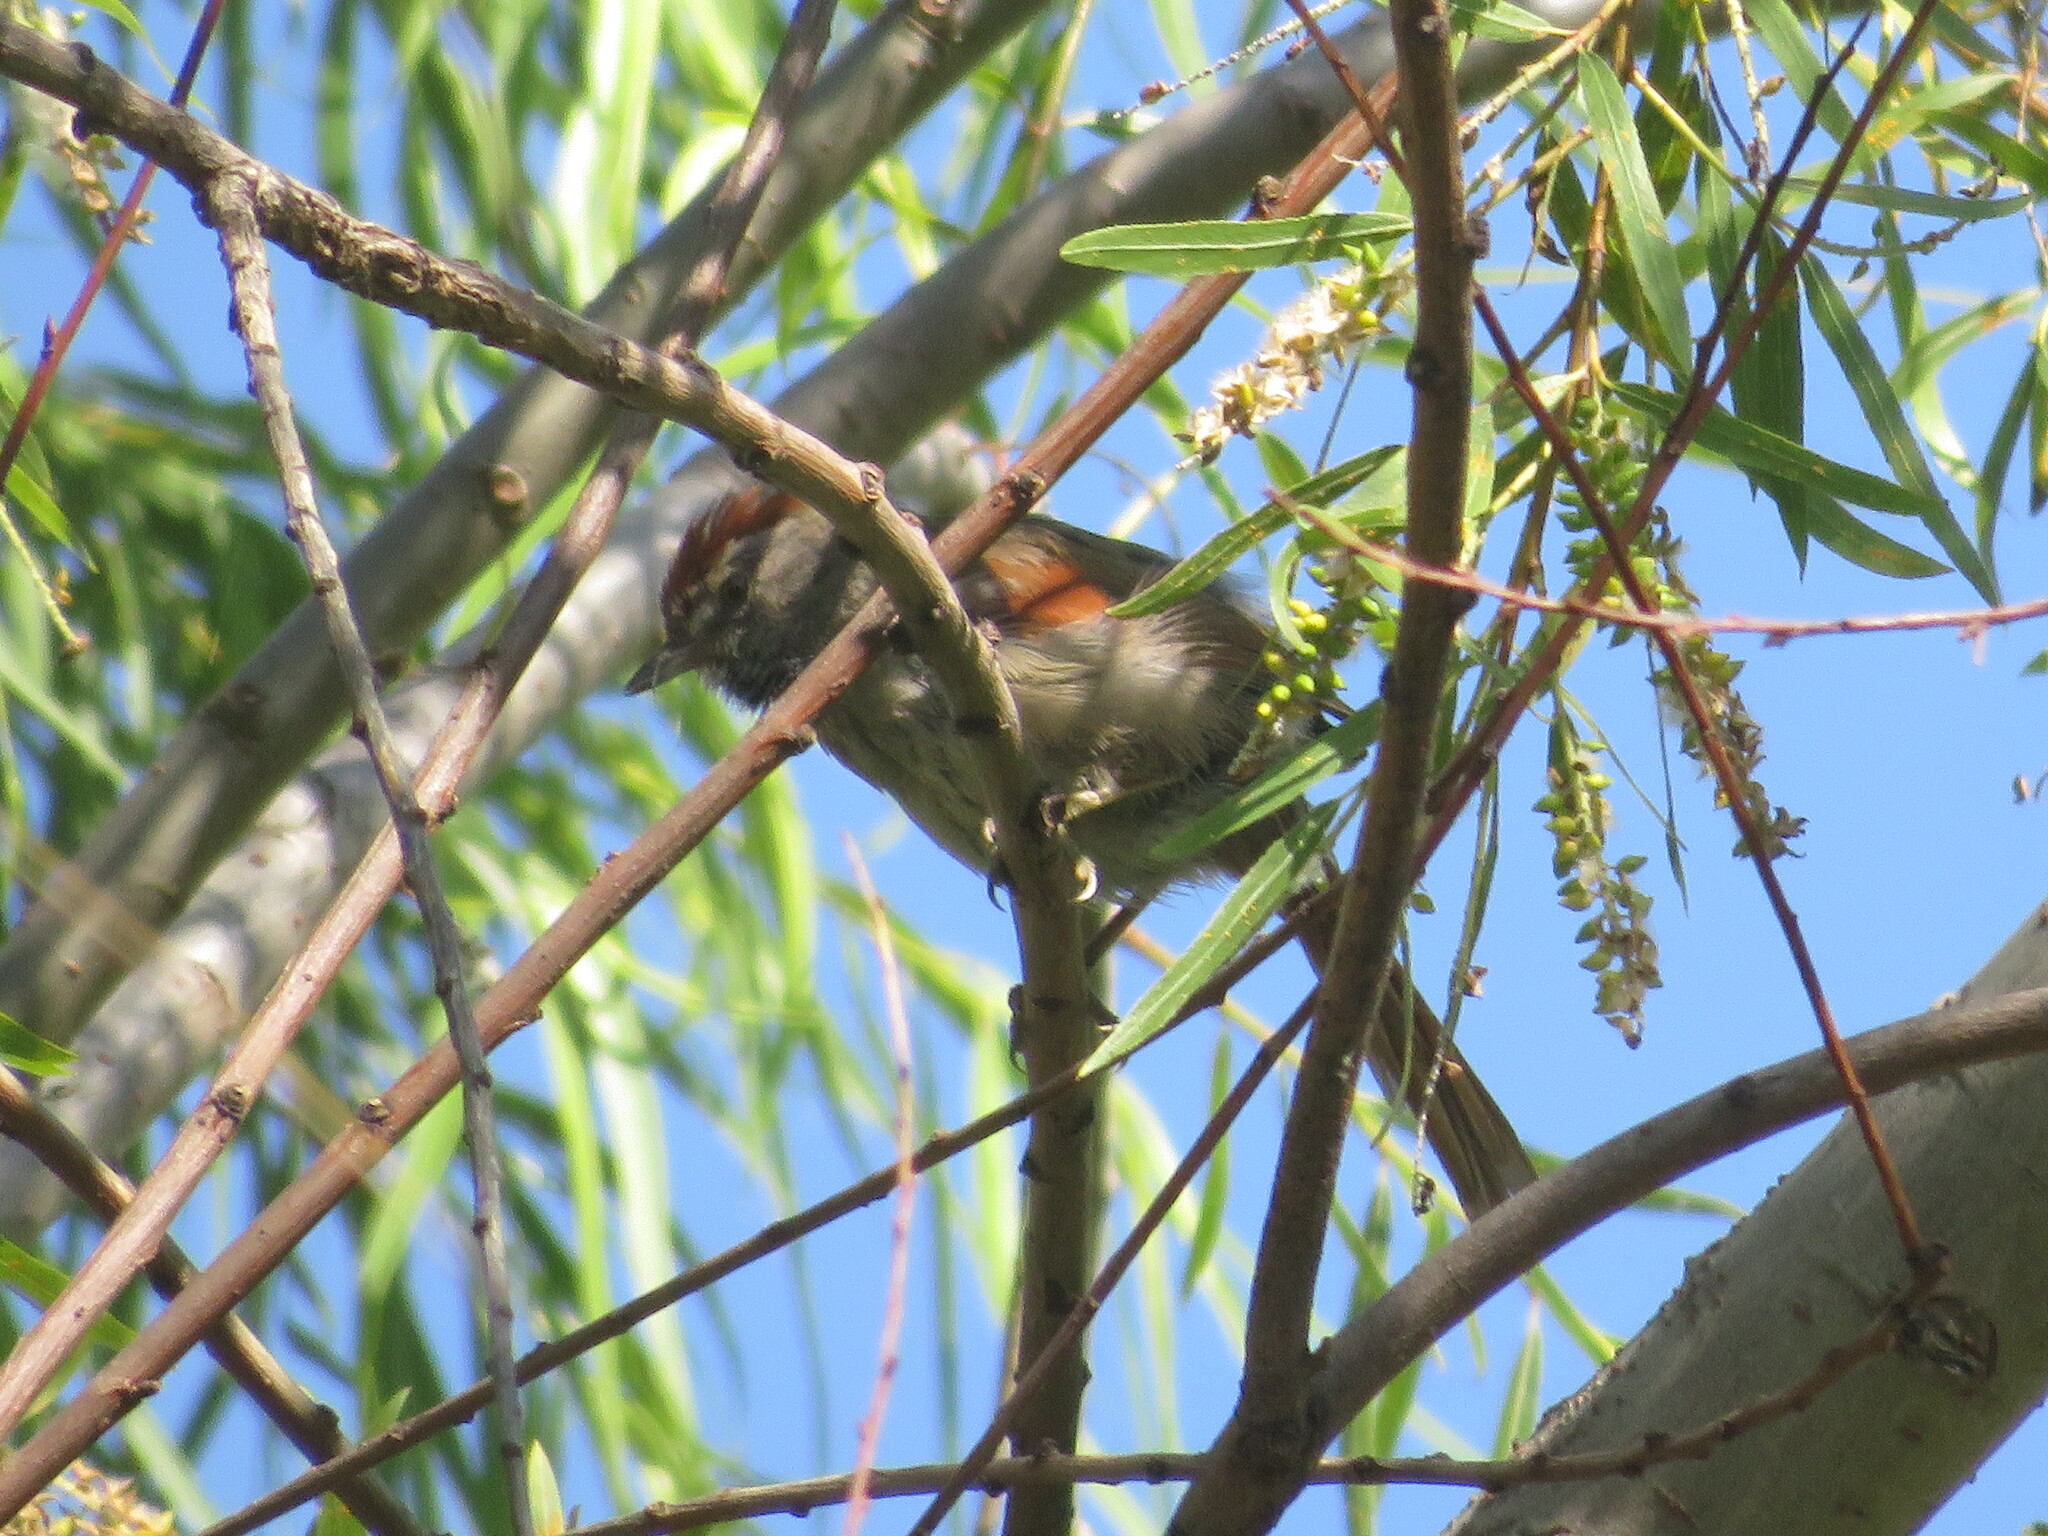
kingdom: Animalia
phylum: Chordata
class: Aves
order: Passeriformes
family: Furnariidae
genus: Synallaxis
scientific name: Synallaxis frontalis
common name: Sooty-fronted spinetail
